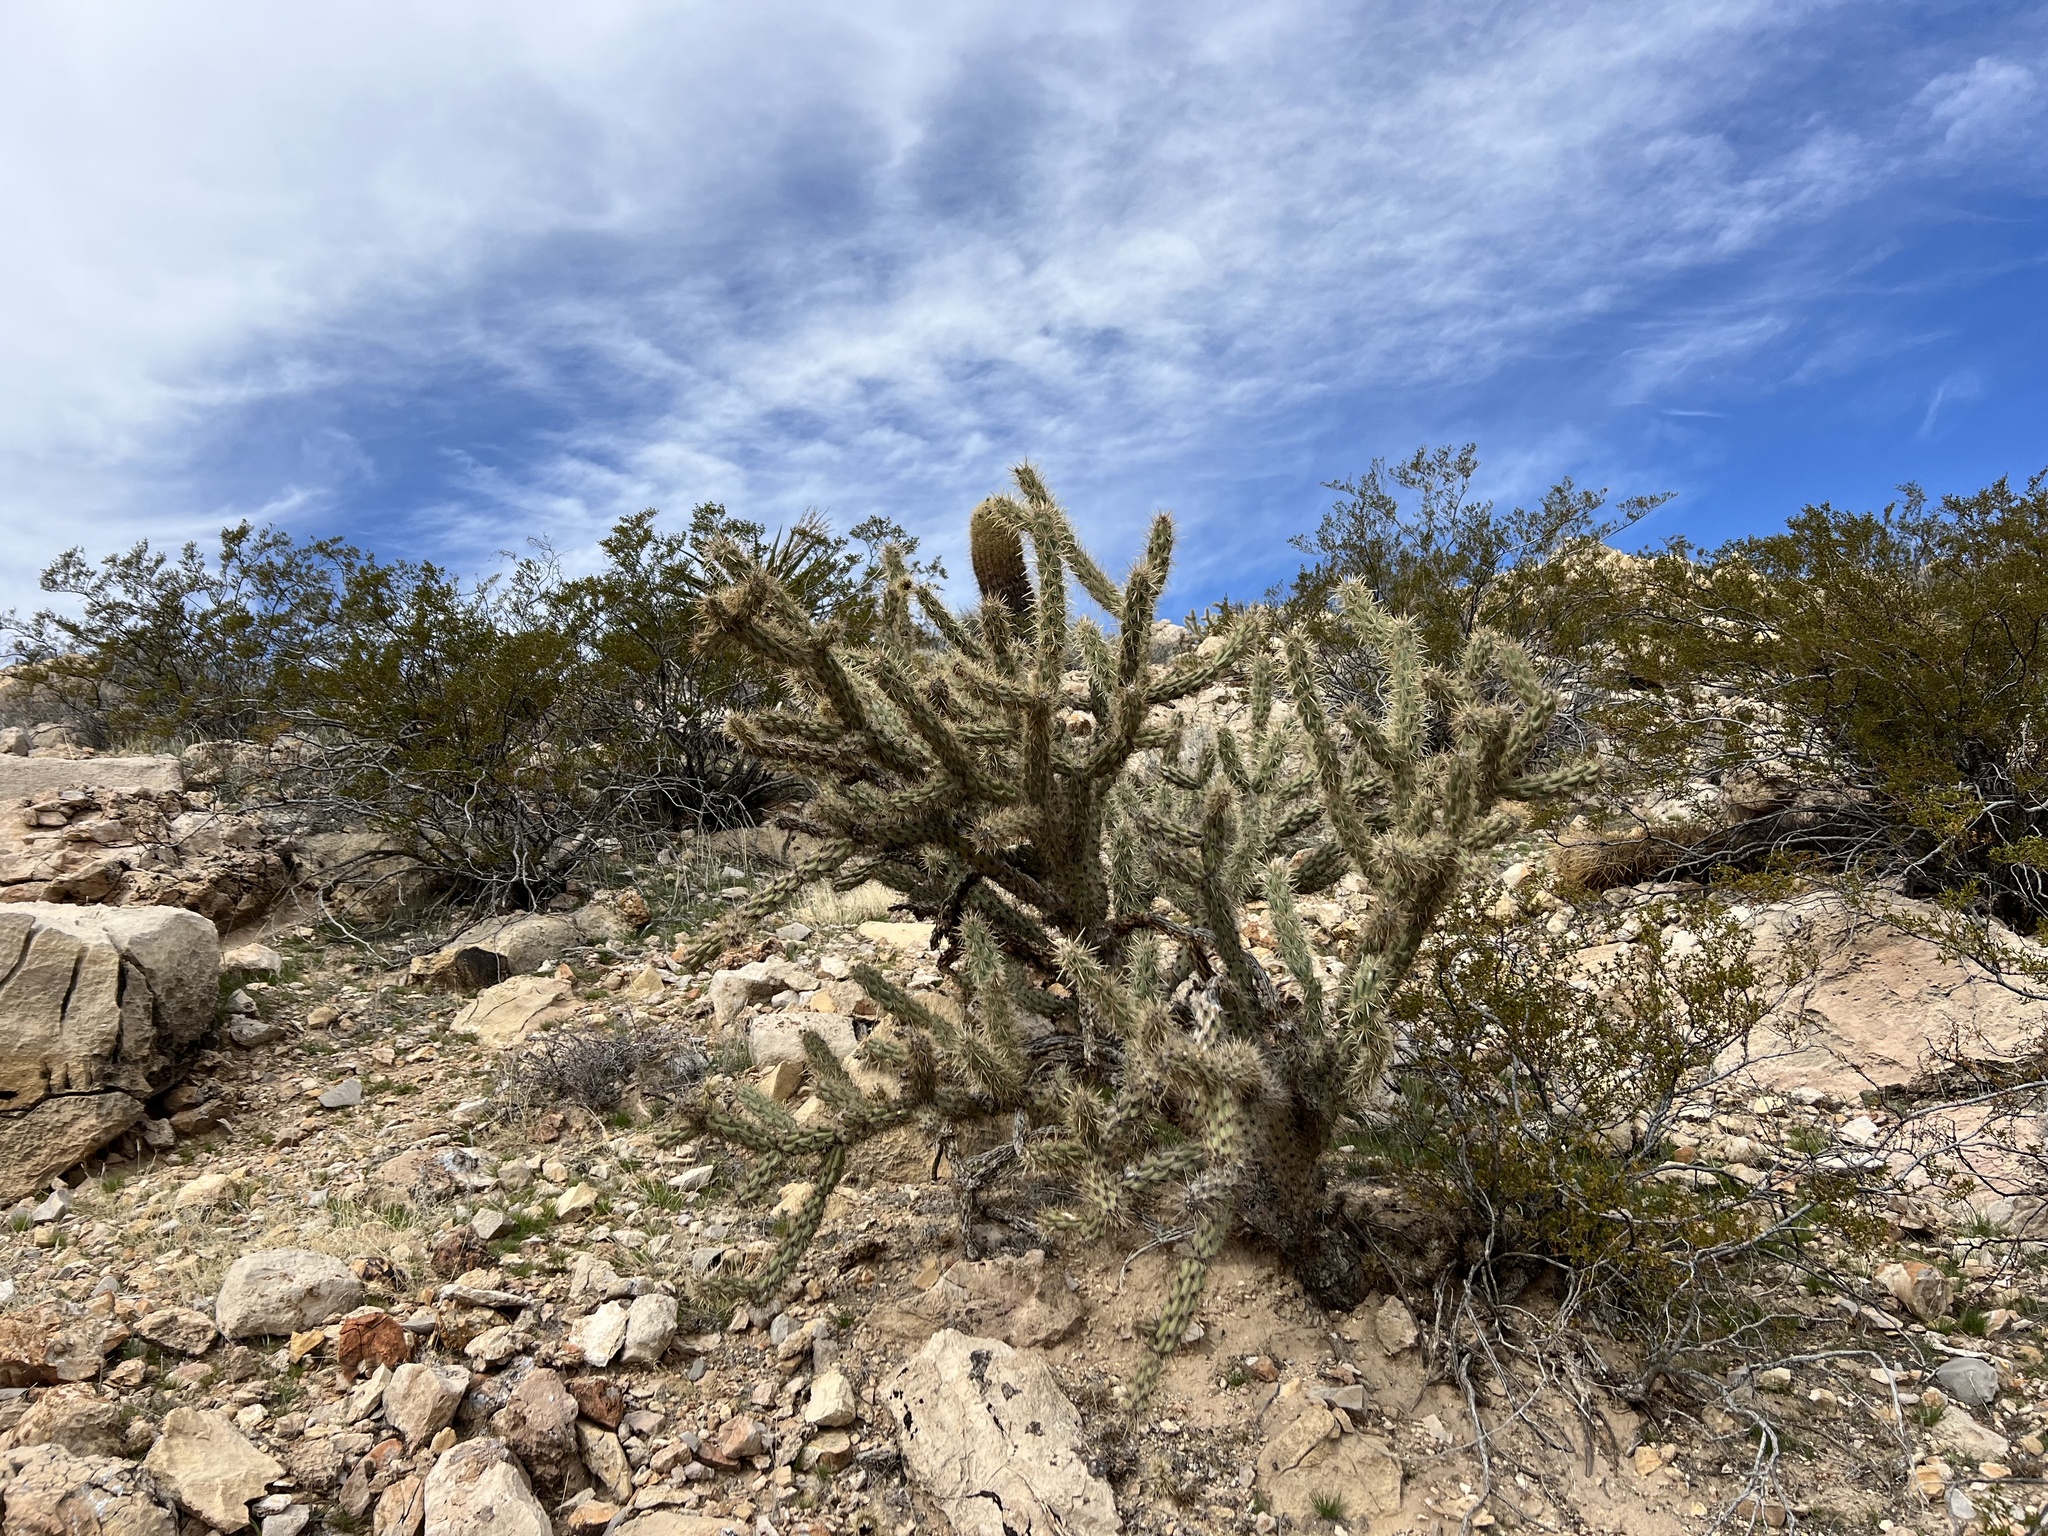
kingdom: Plantae
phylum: Tracheophyta
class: Magnoliopsida
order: Caryophyllales
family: Cactaceae
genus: Cylindropuntia
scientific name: Cylindropuntia acanthocarpa
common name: Buckhorn cholla
